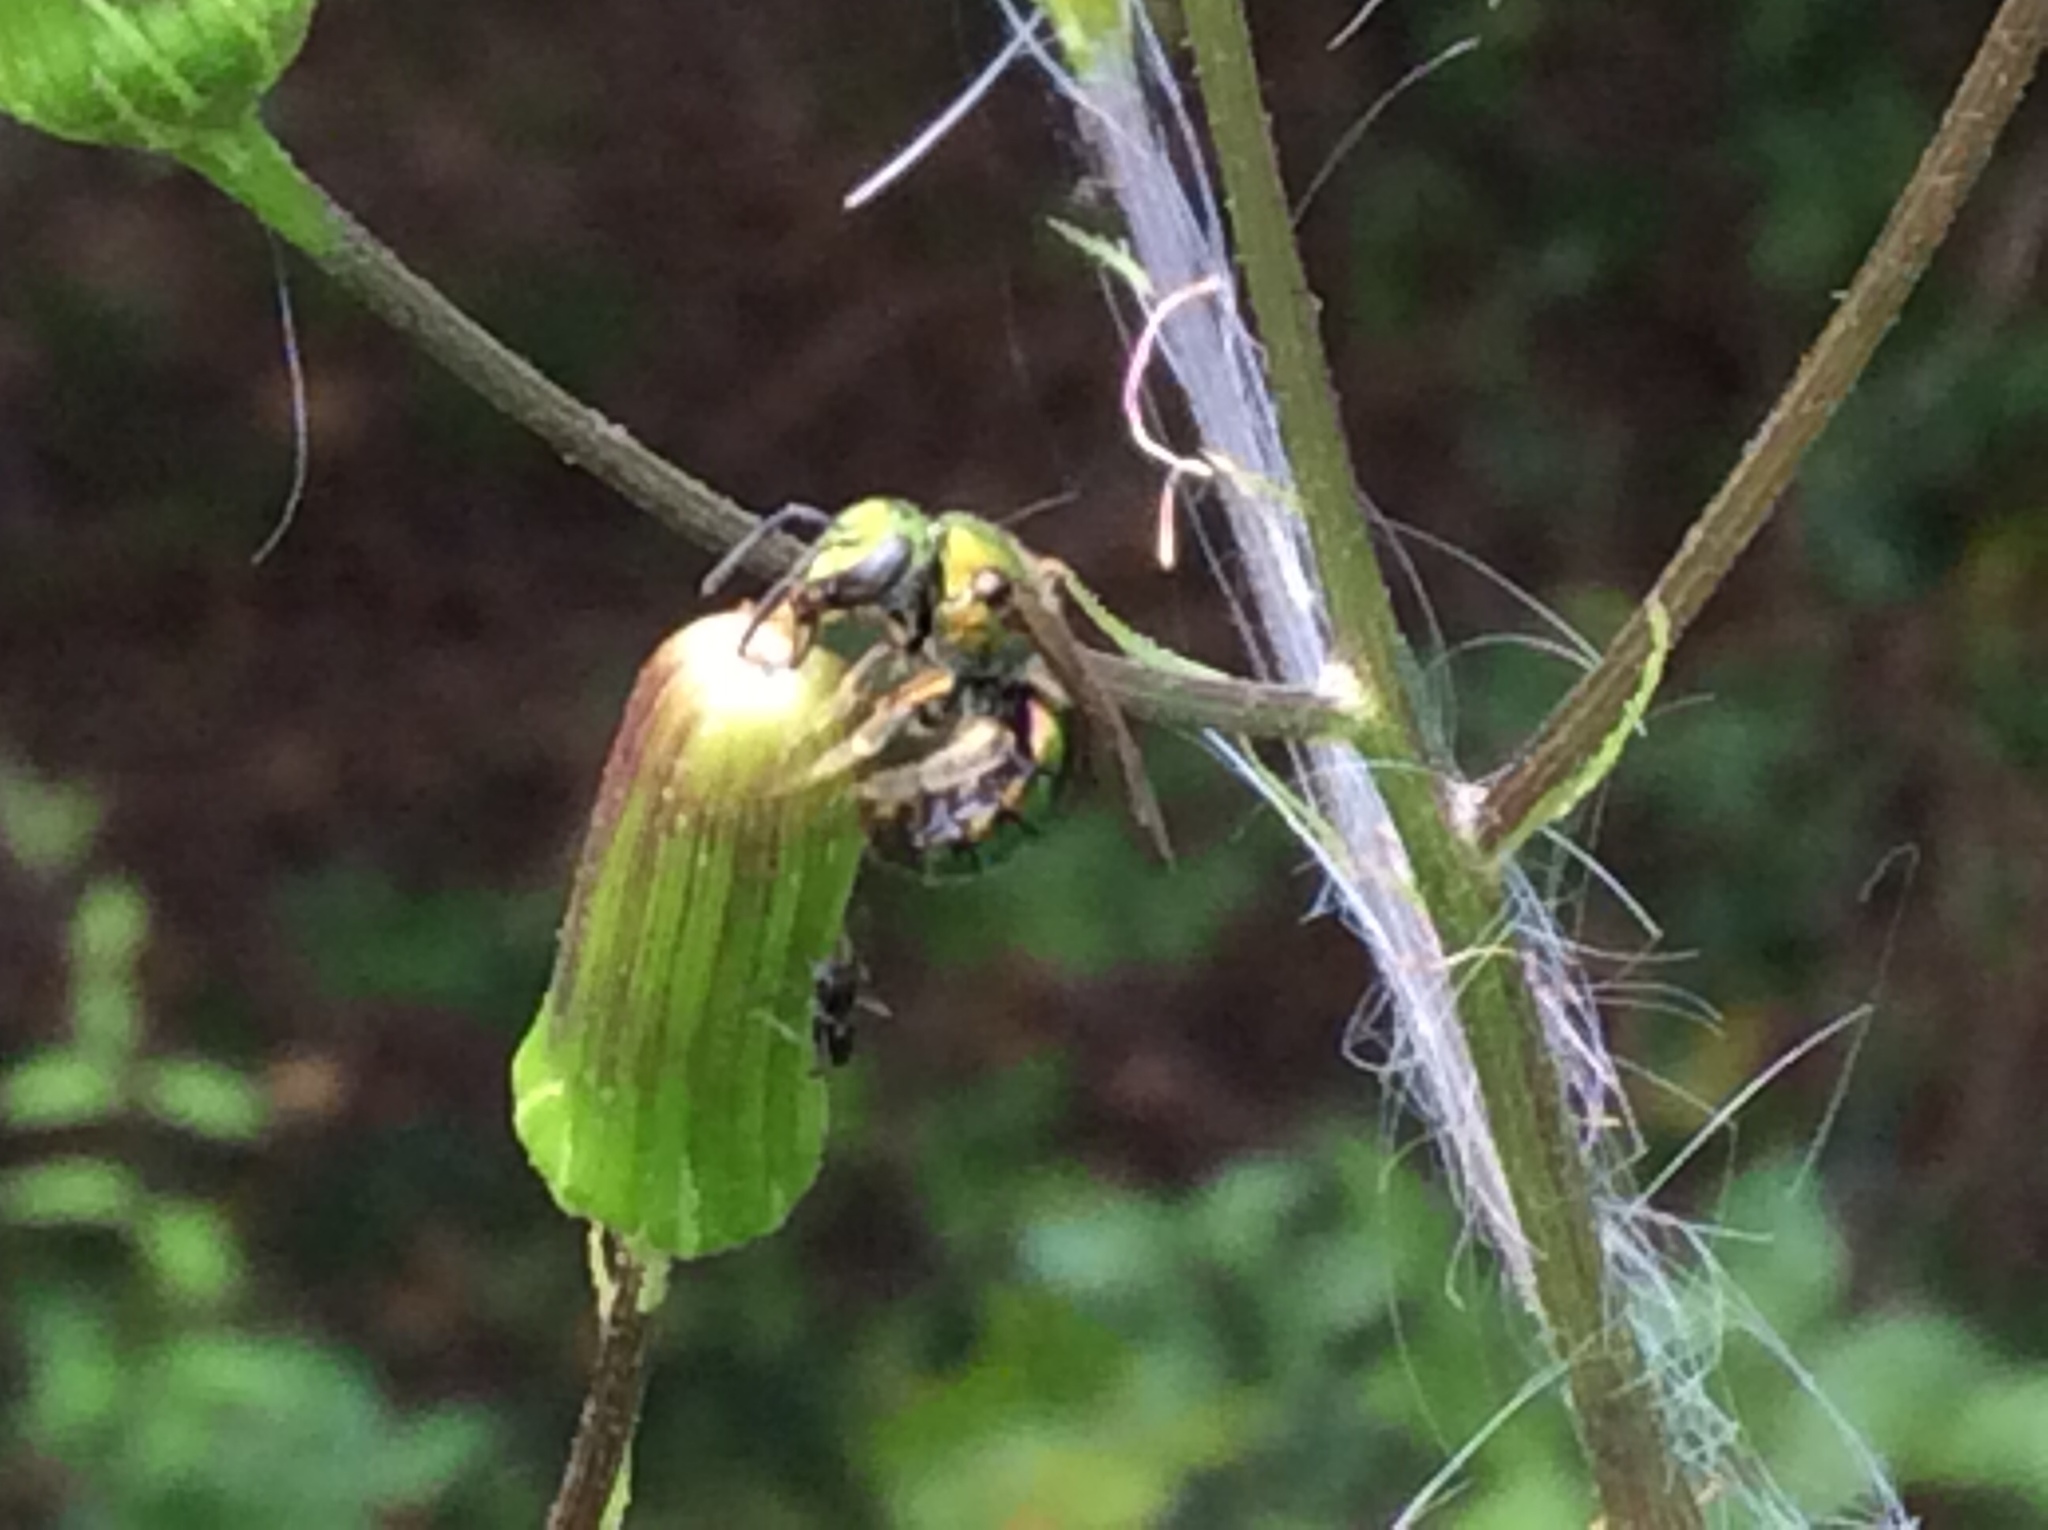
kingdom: Animalia
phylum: Arthropoda
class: Insecta
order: Hymenoptera
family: Halictidae
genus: Augochlora
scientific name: Augochlora pura
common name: Pure green sweat bee
